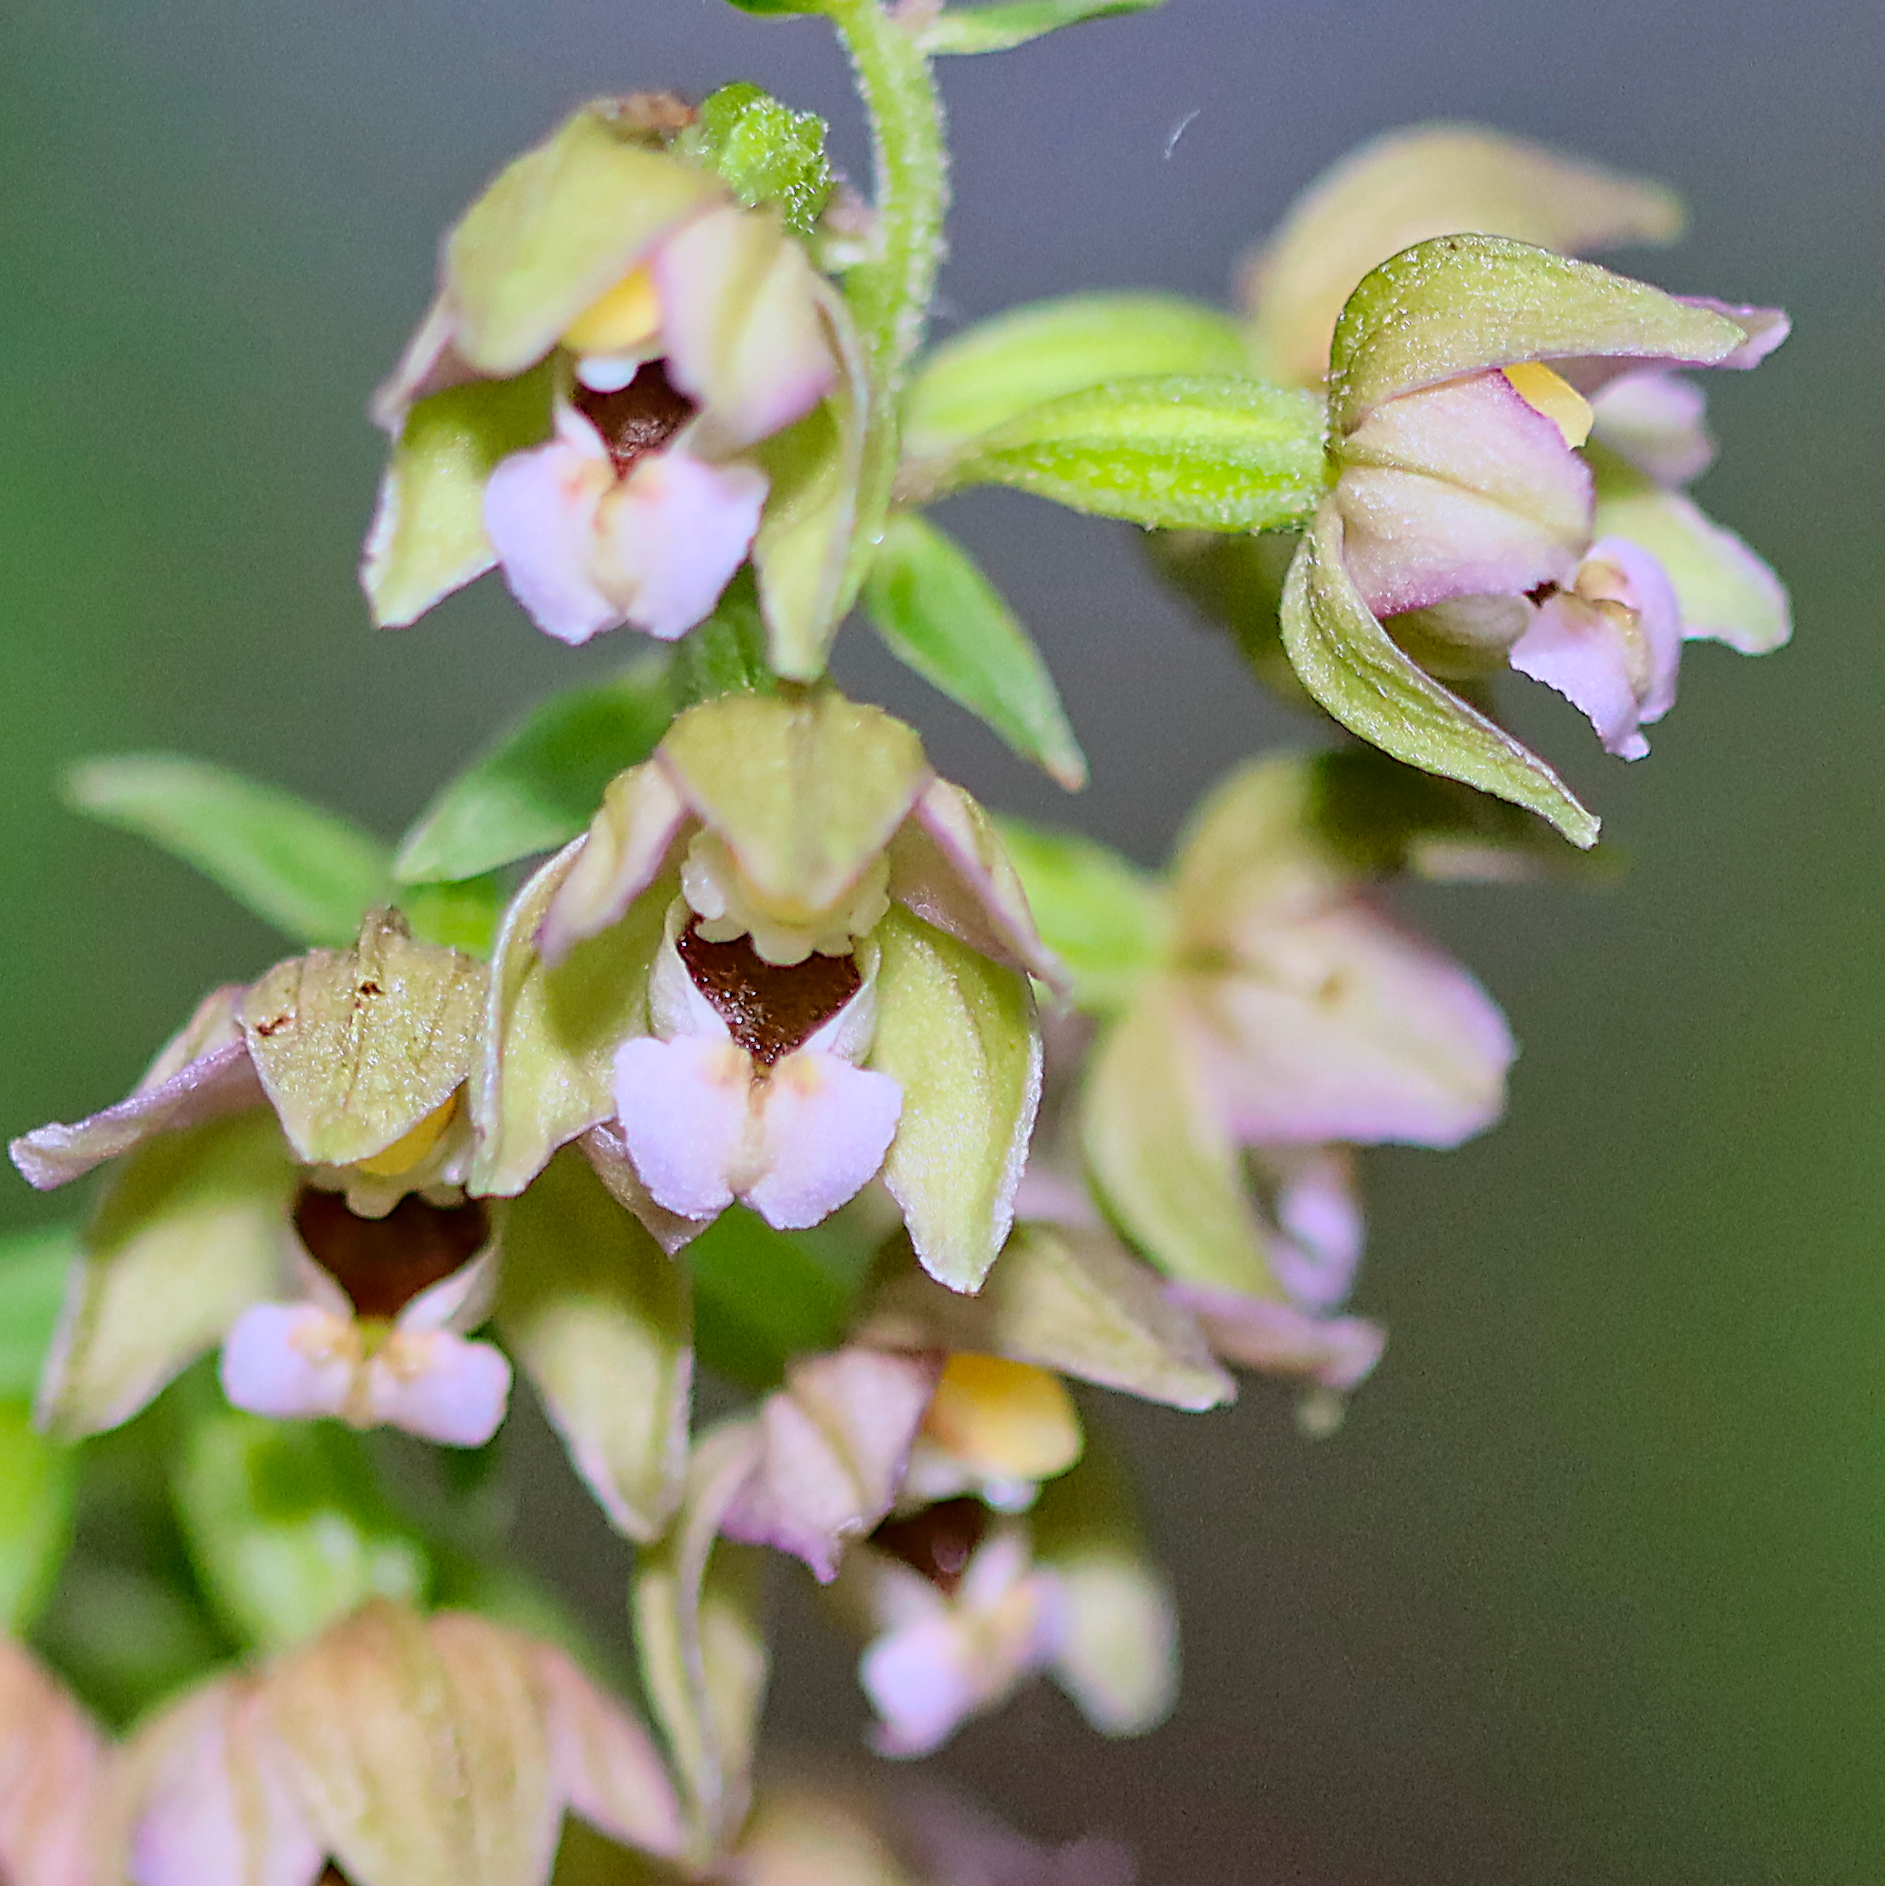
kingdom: Plantae
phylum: Tracheophyta
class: Liliopsida
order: Asparagales
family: Orchidaceae
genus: Epipactis
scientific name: Epipactis helleborine
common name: Broad-leaved helleborine
